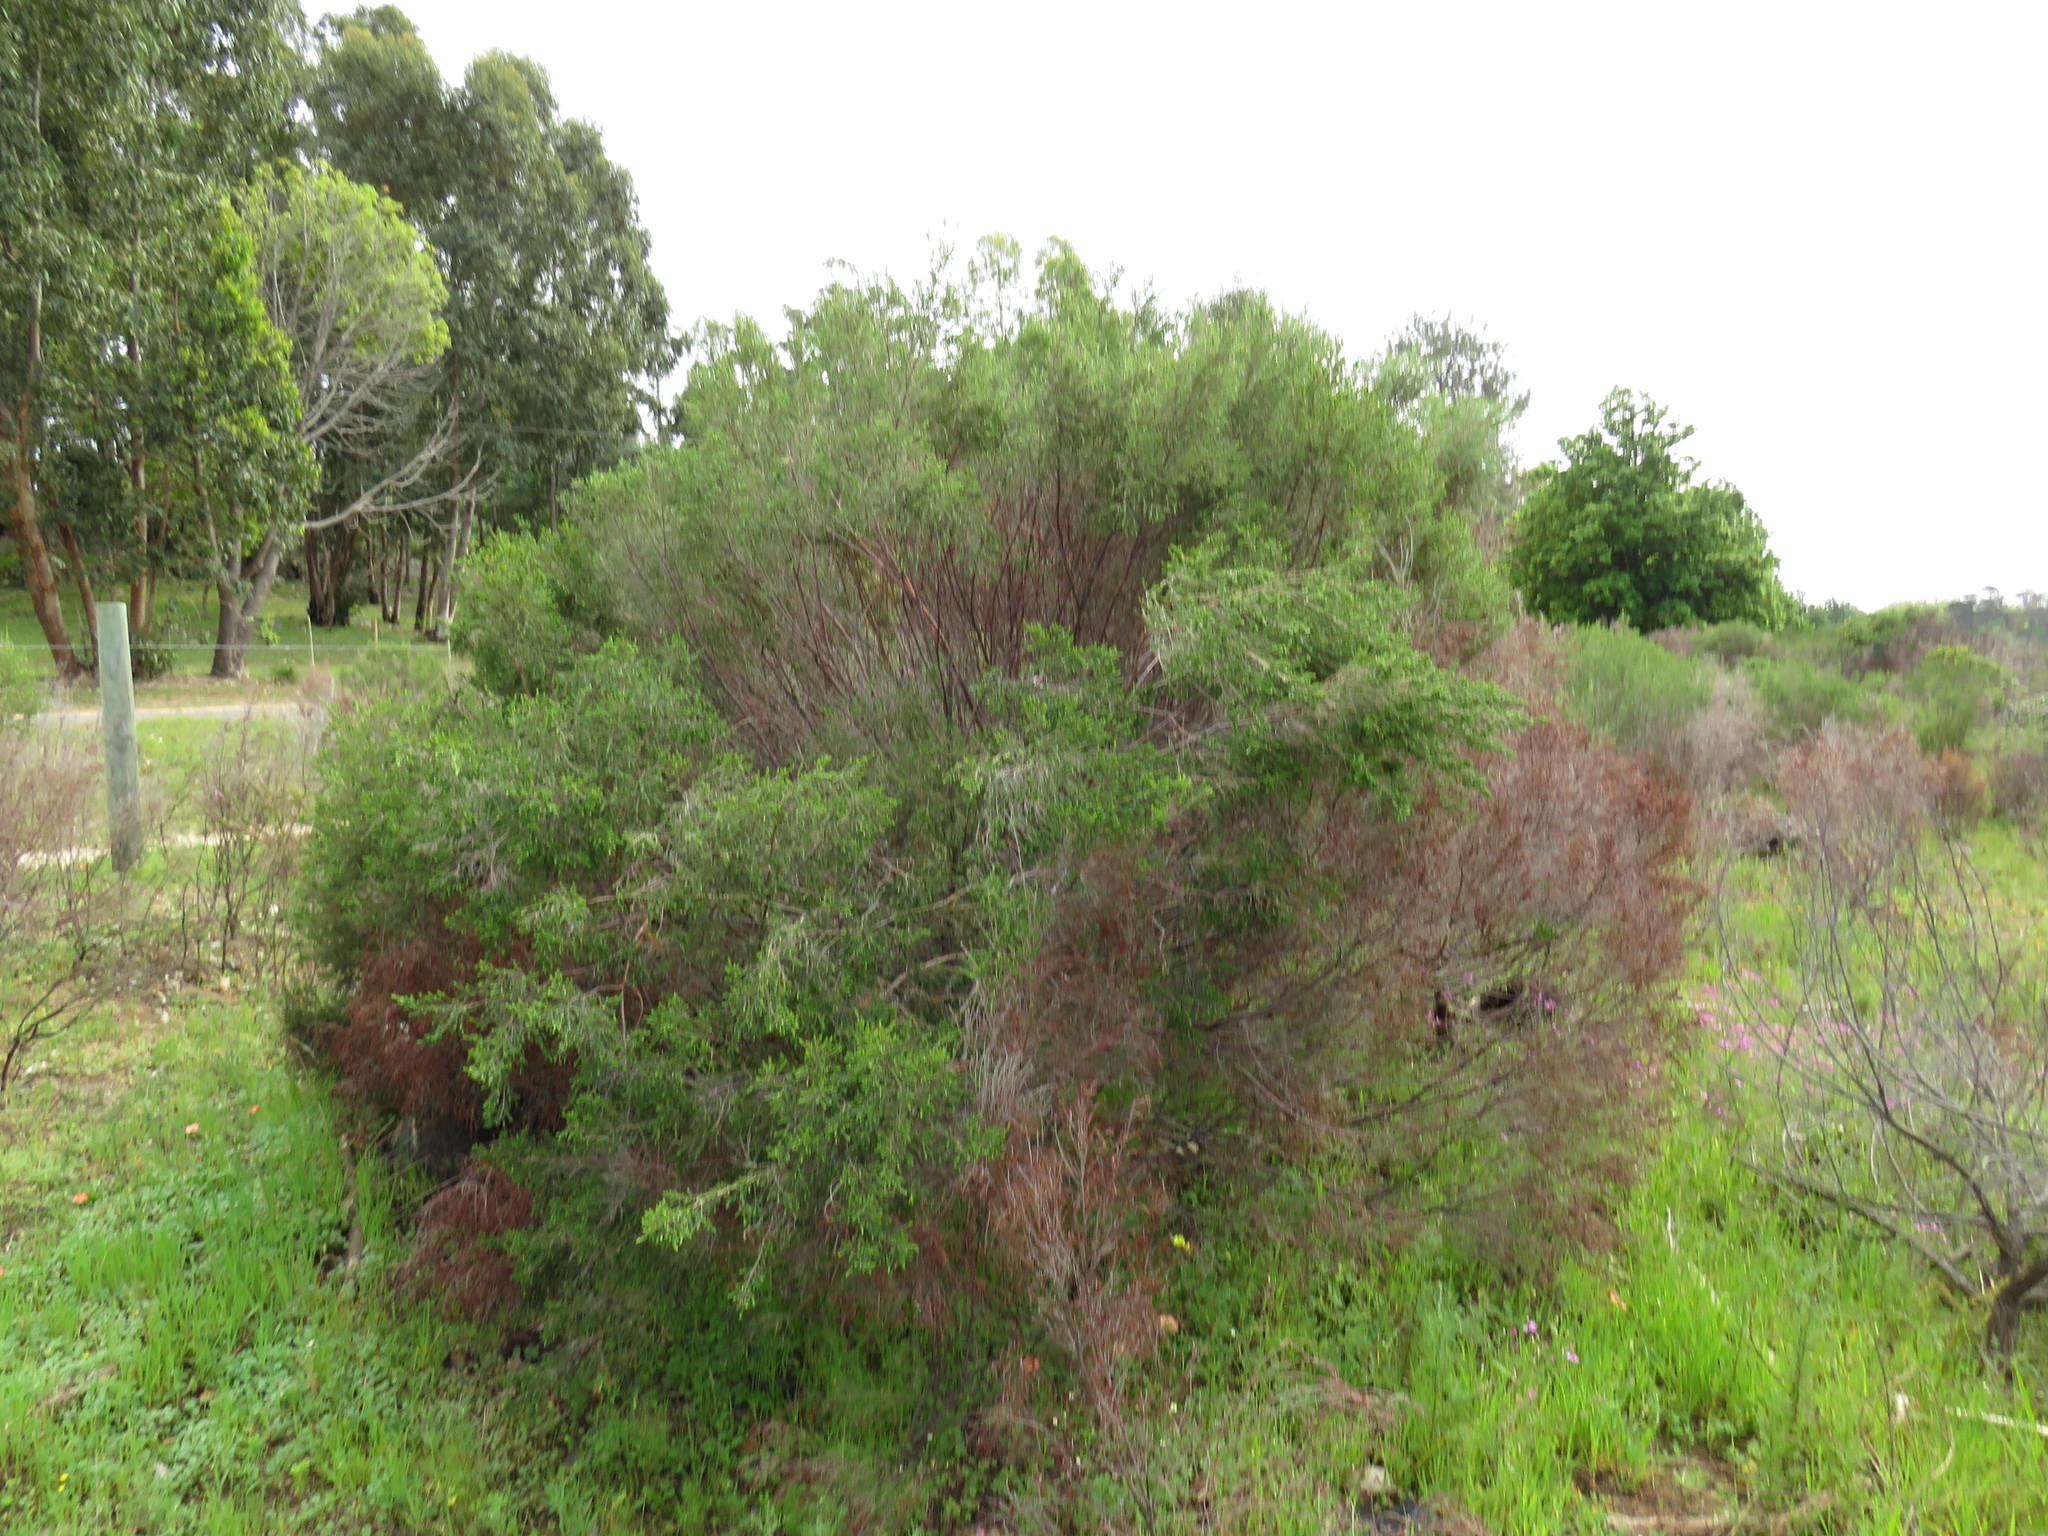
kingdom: Plantae
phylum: Tracheophyta
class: Magnoliopsida
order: Malvales
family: Thymelaeaceae
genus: Passerina
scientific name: Passerina corymbosa
